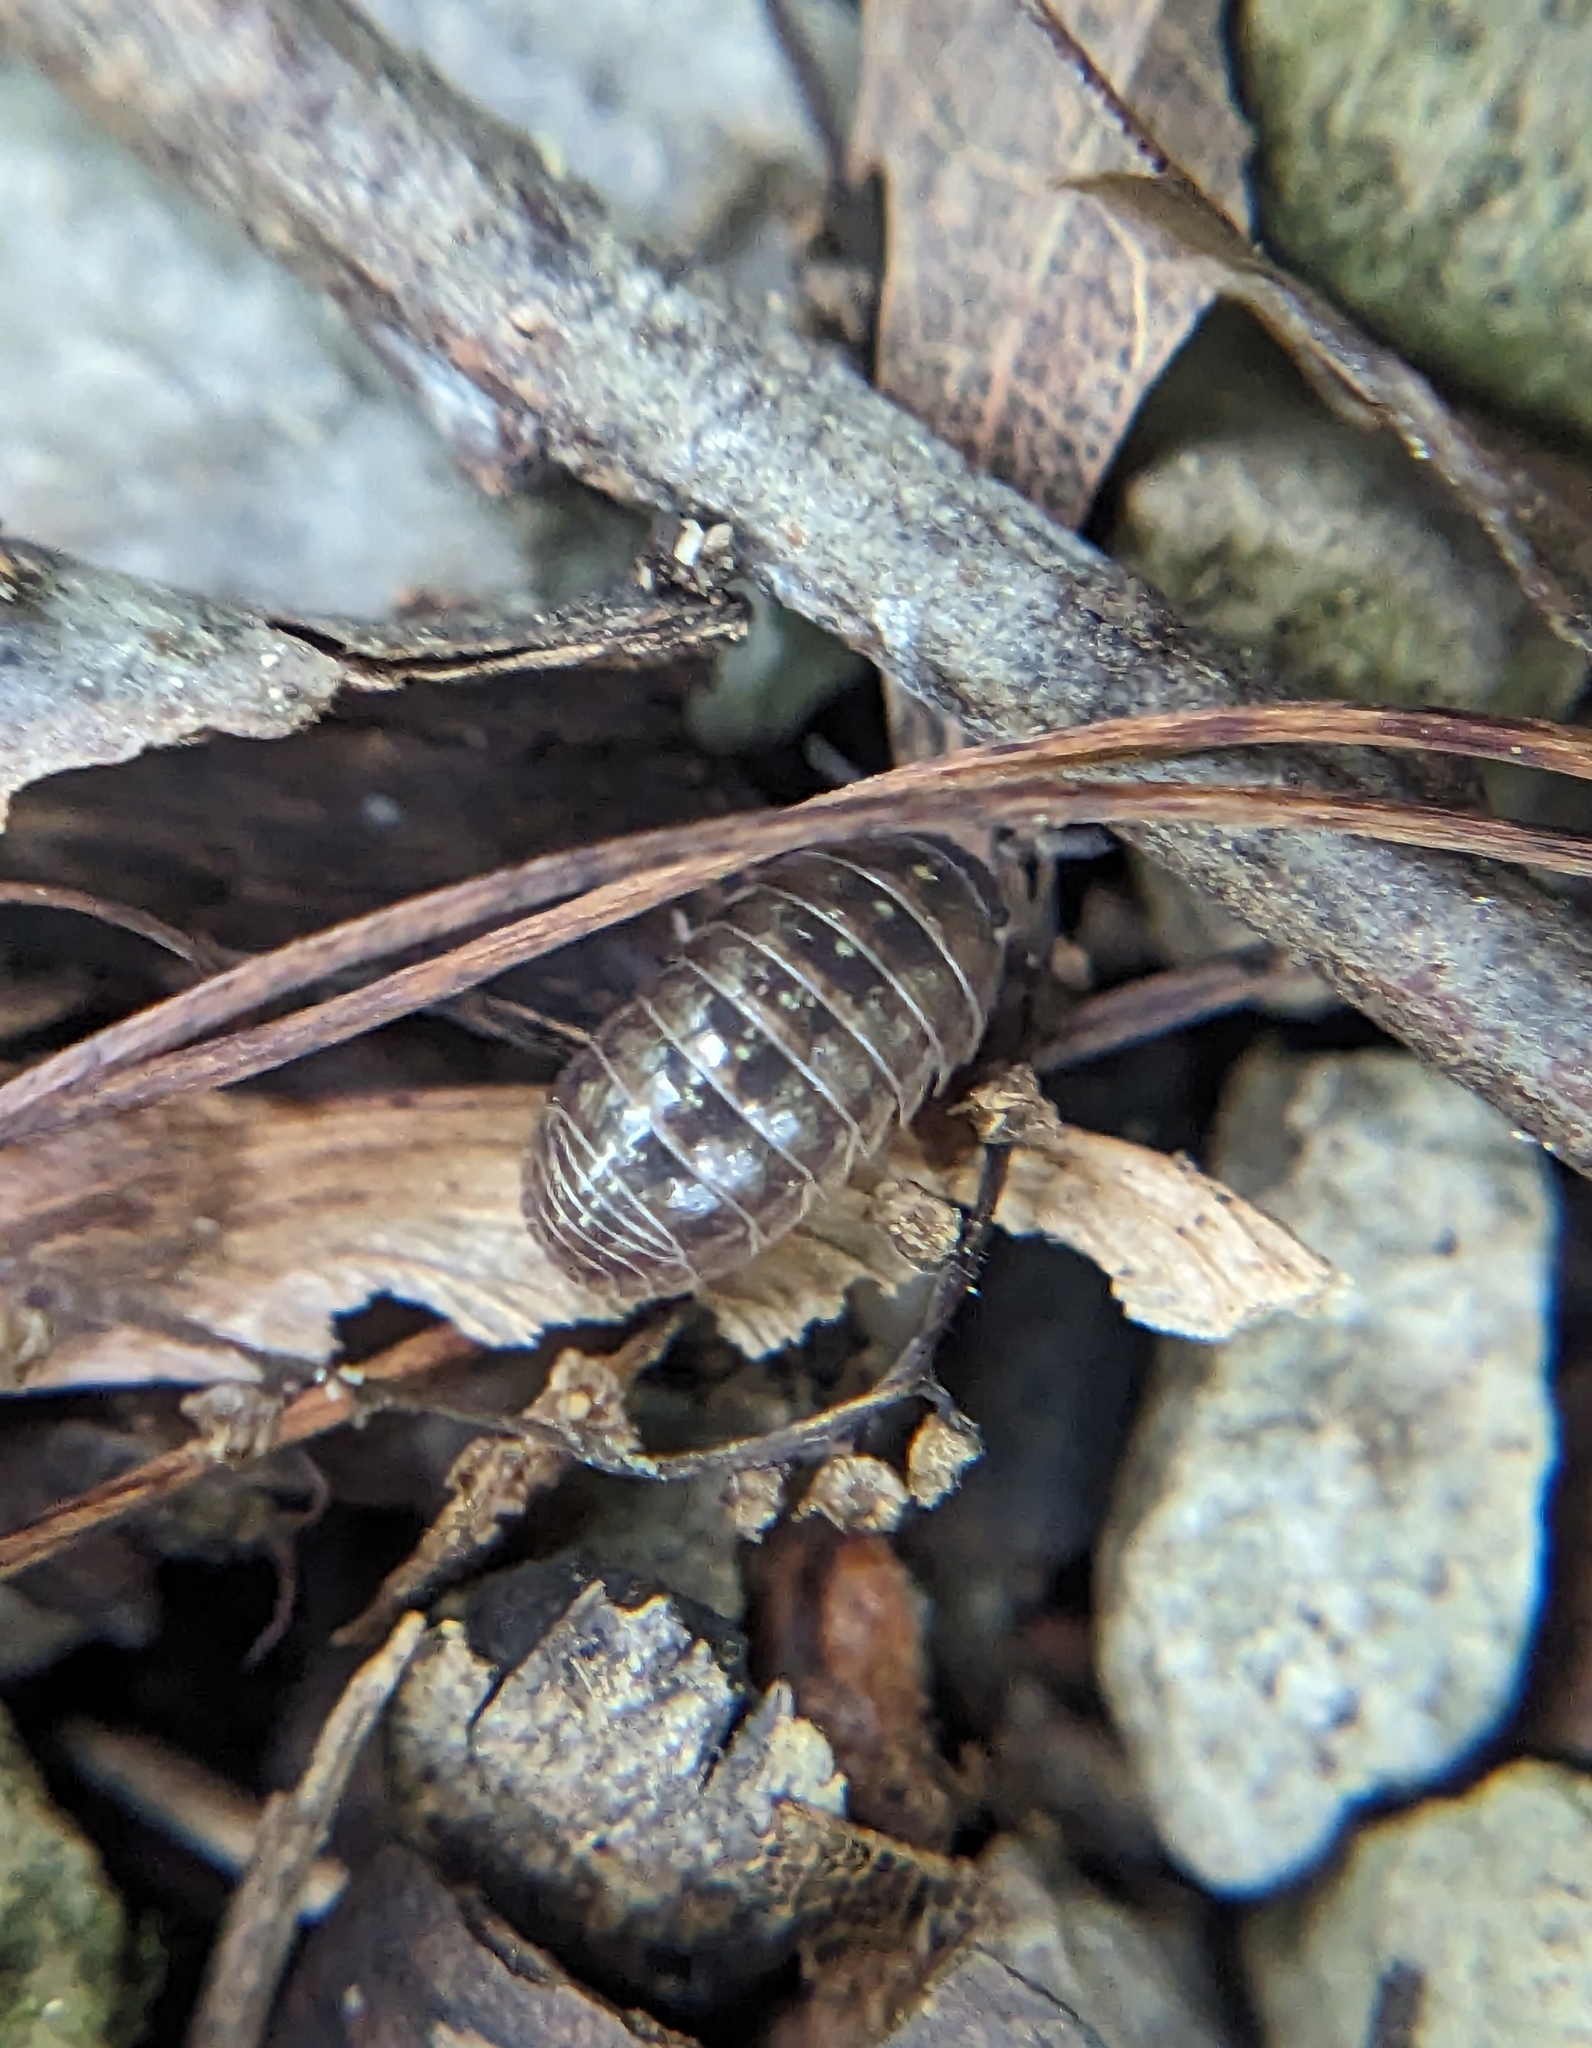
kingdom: Animalia
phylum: Arthropoda
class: Malacostraca
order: Isopoda
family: Armadillidiidae
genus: Armadillidium
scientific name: Armadillidium vulgare
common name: Common pill woodlouse
